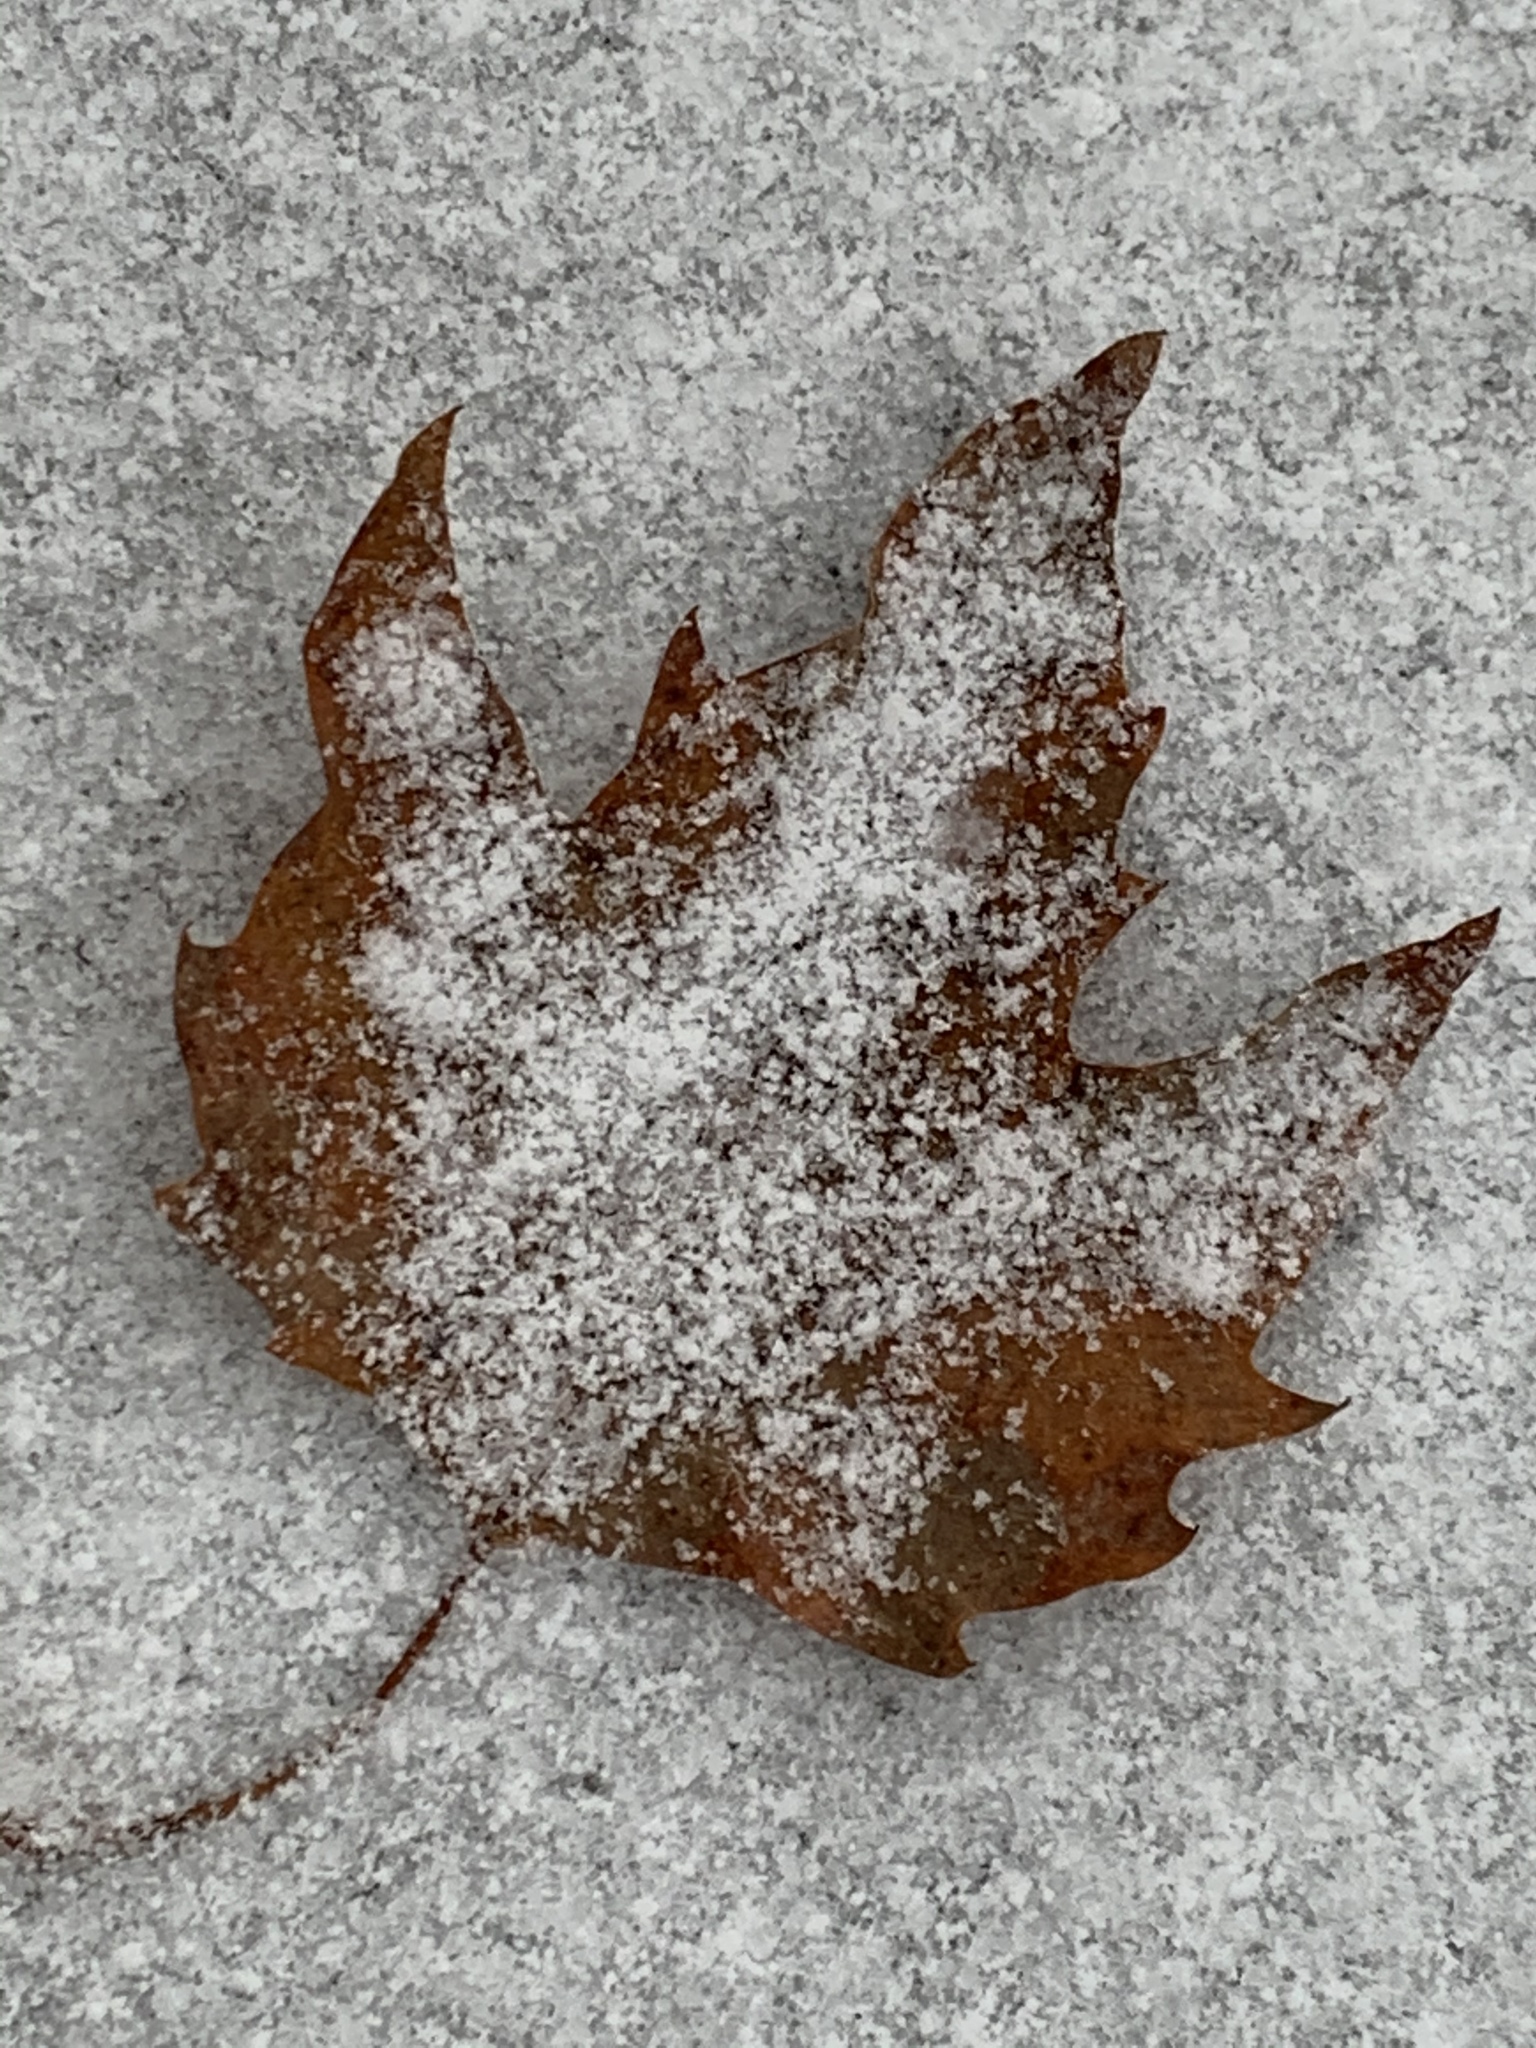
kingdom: Plantae
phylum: Tracheophyta
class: Magnoliopsida
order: Sapindales
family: Sapindaceae
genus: Acer
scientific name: Acer saccharum
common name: Sugar maple
